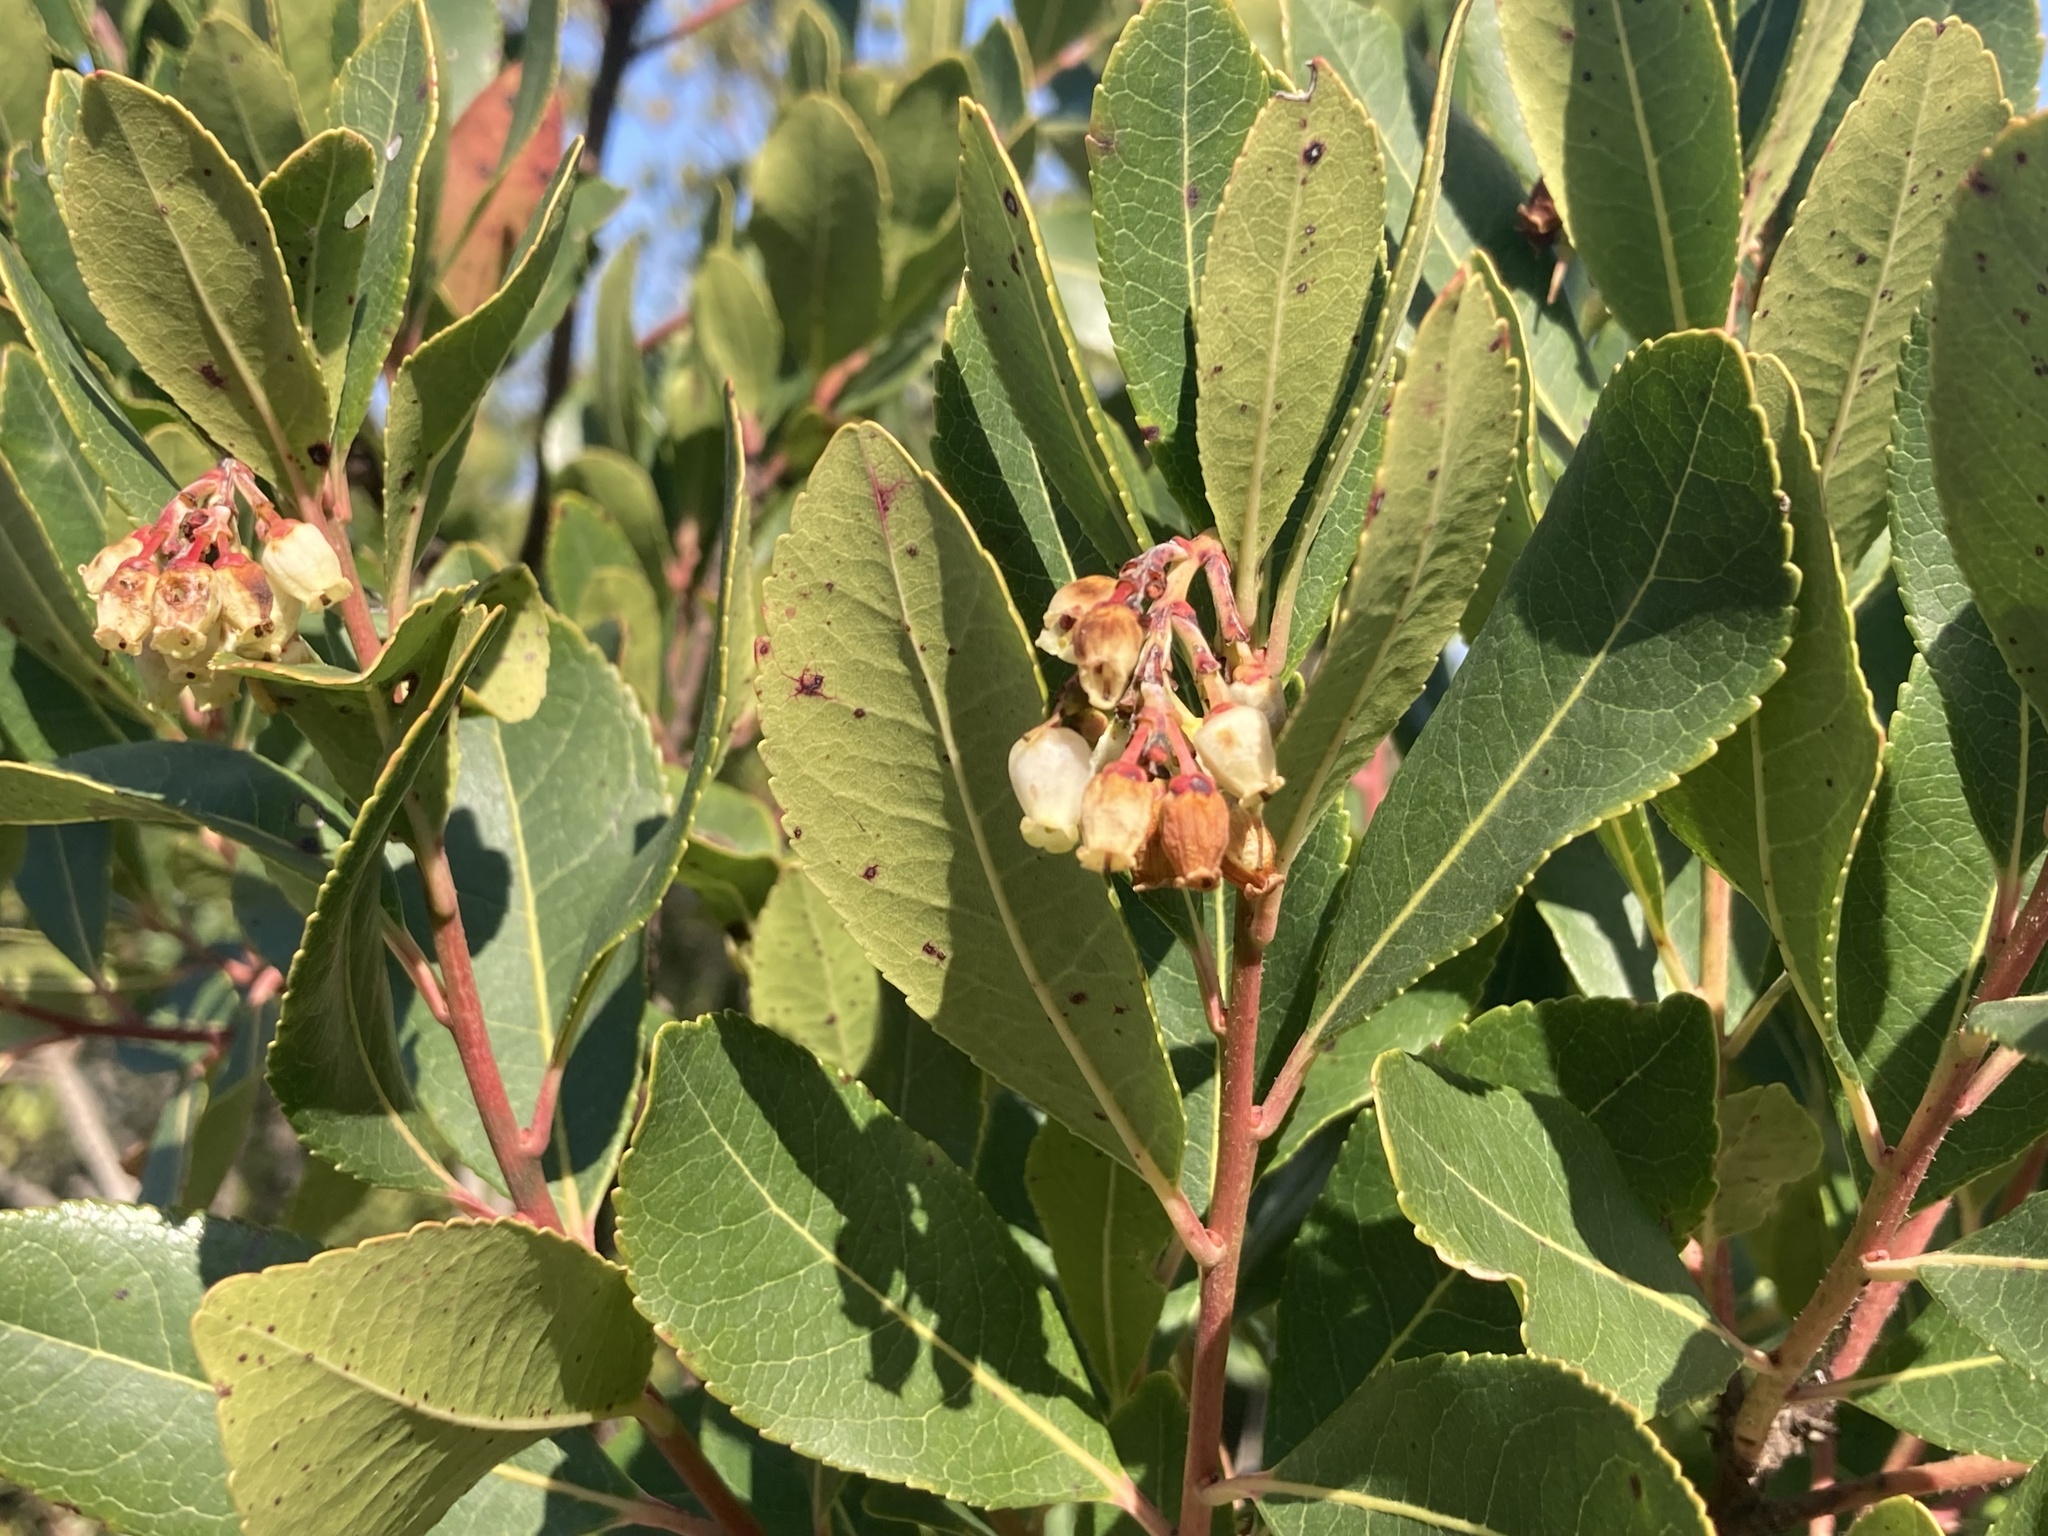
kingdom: Plantae
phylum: Tracheophyta
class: Magnoliopsida
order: Ericales
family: Ericaceae
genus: Arbutus
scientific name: Arbutus unedo
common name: Strawberry-tree
